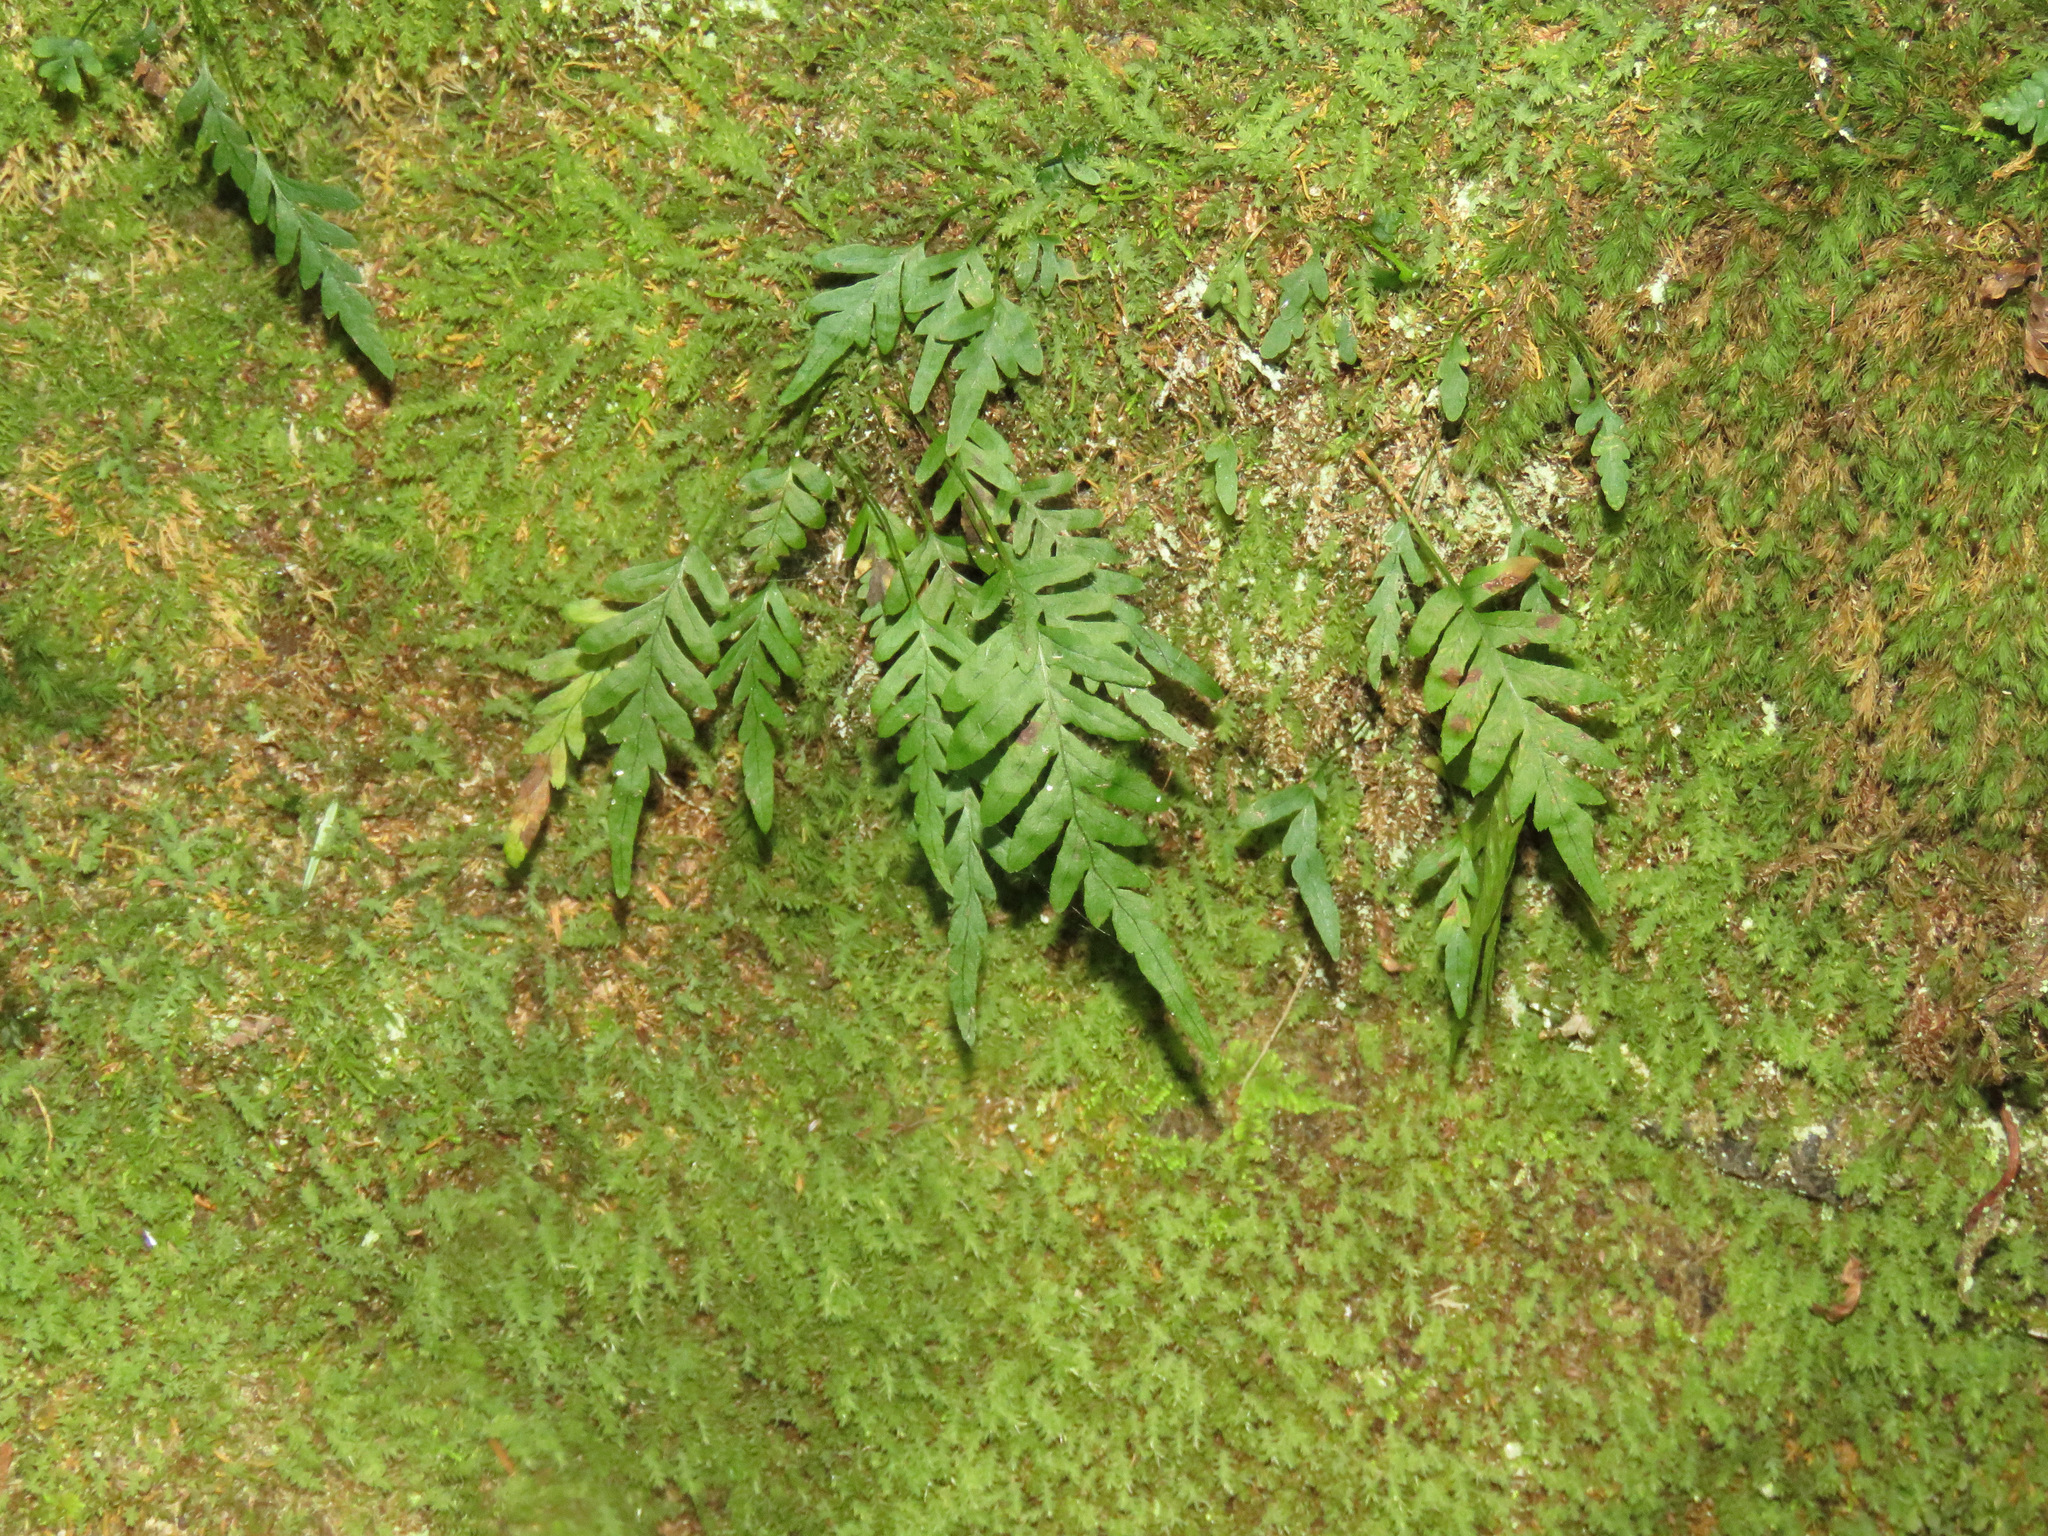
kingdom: Plantae
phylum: Tracheophyta
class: Polypodiopsida
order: Polypodiales
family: Polypodiaceae
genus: Polypodium
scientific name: Polypodium glycyrrhiza
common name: Licorice fern
